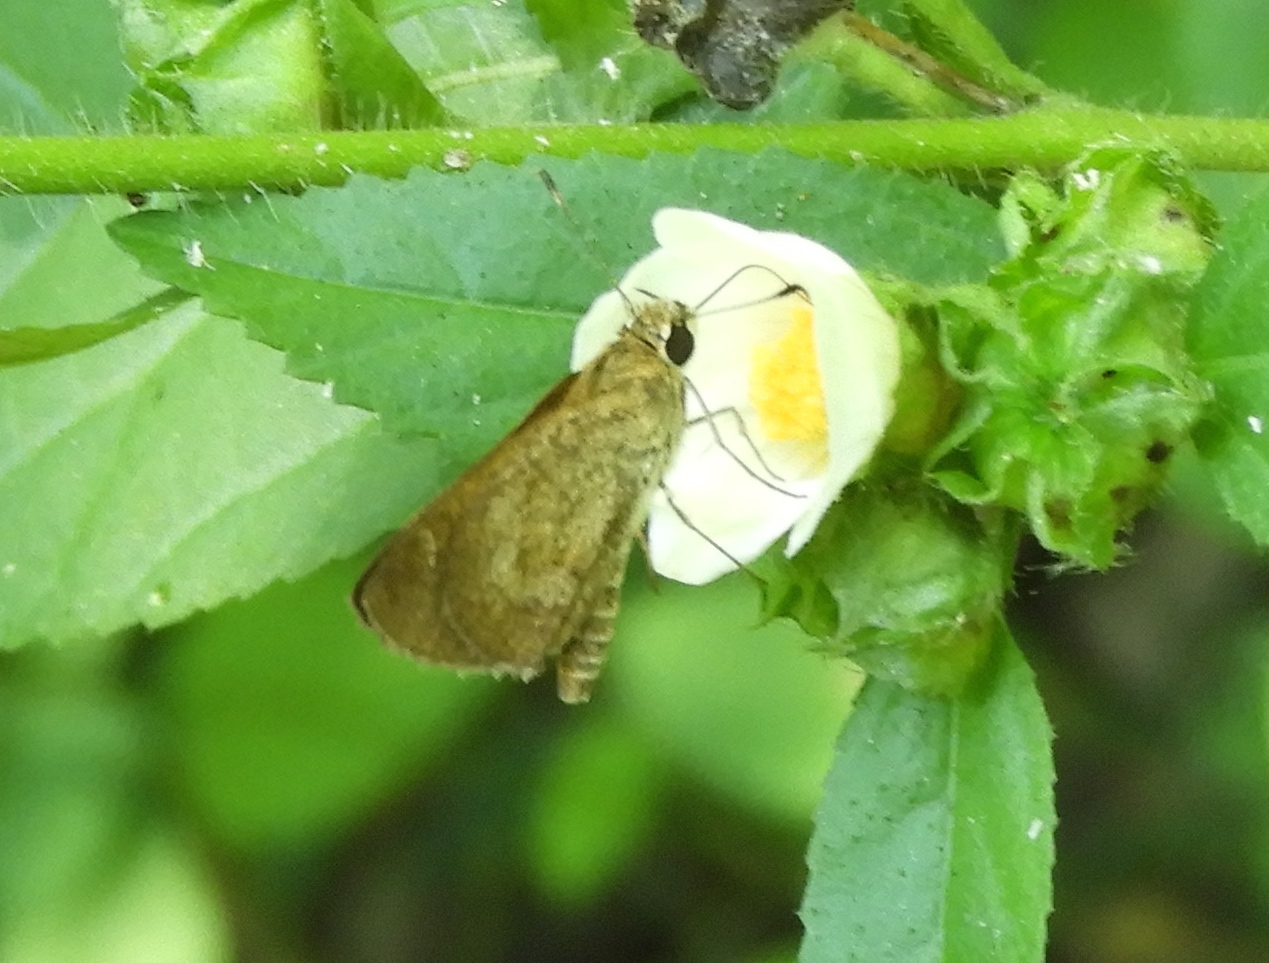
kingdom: Animalia
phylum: Arthropoda
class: Insecta
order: Lepidoptera
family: Hesperiidae
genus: Callimormus
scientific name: Callimormus saturnus
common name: Saturnus skipper
